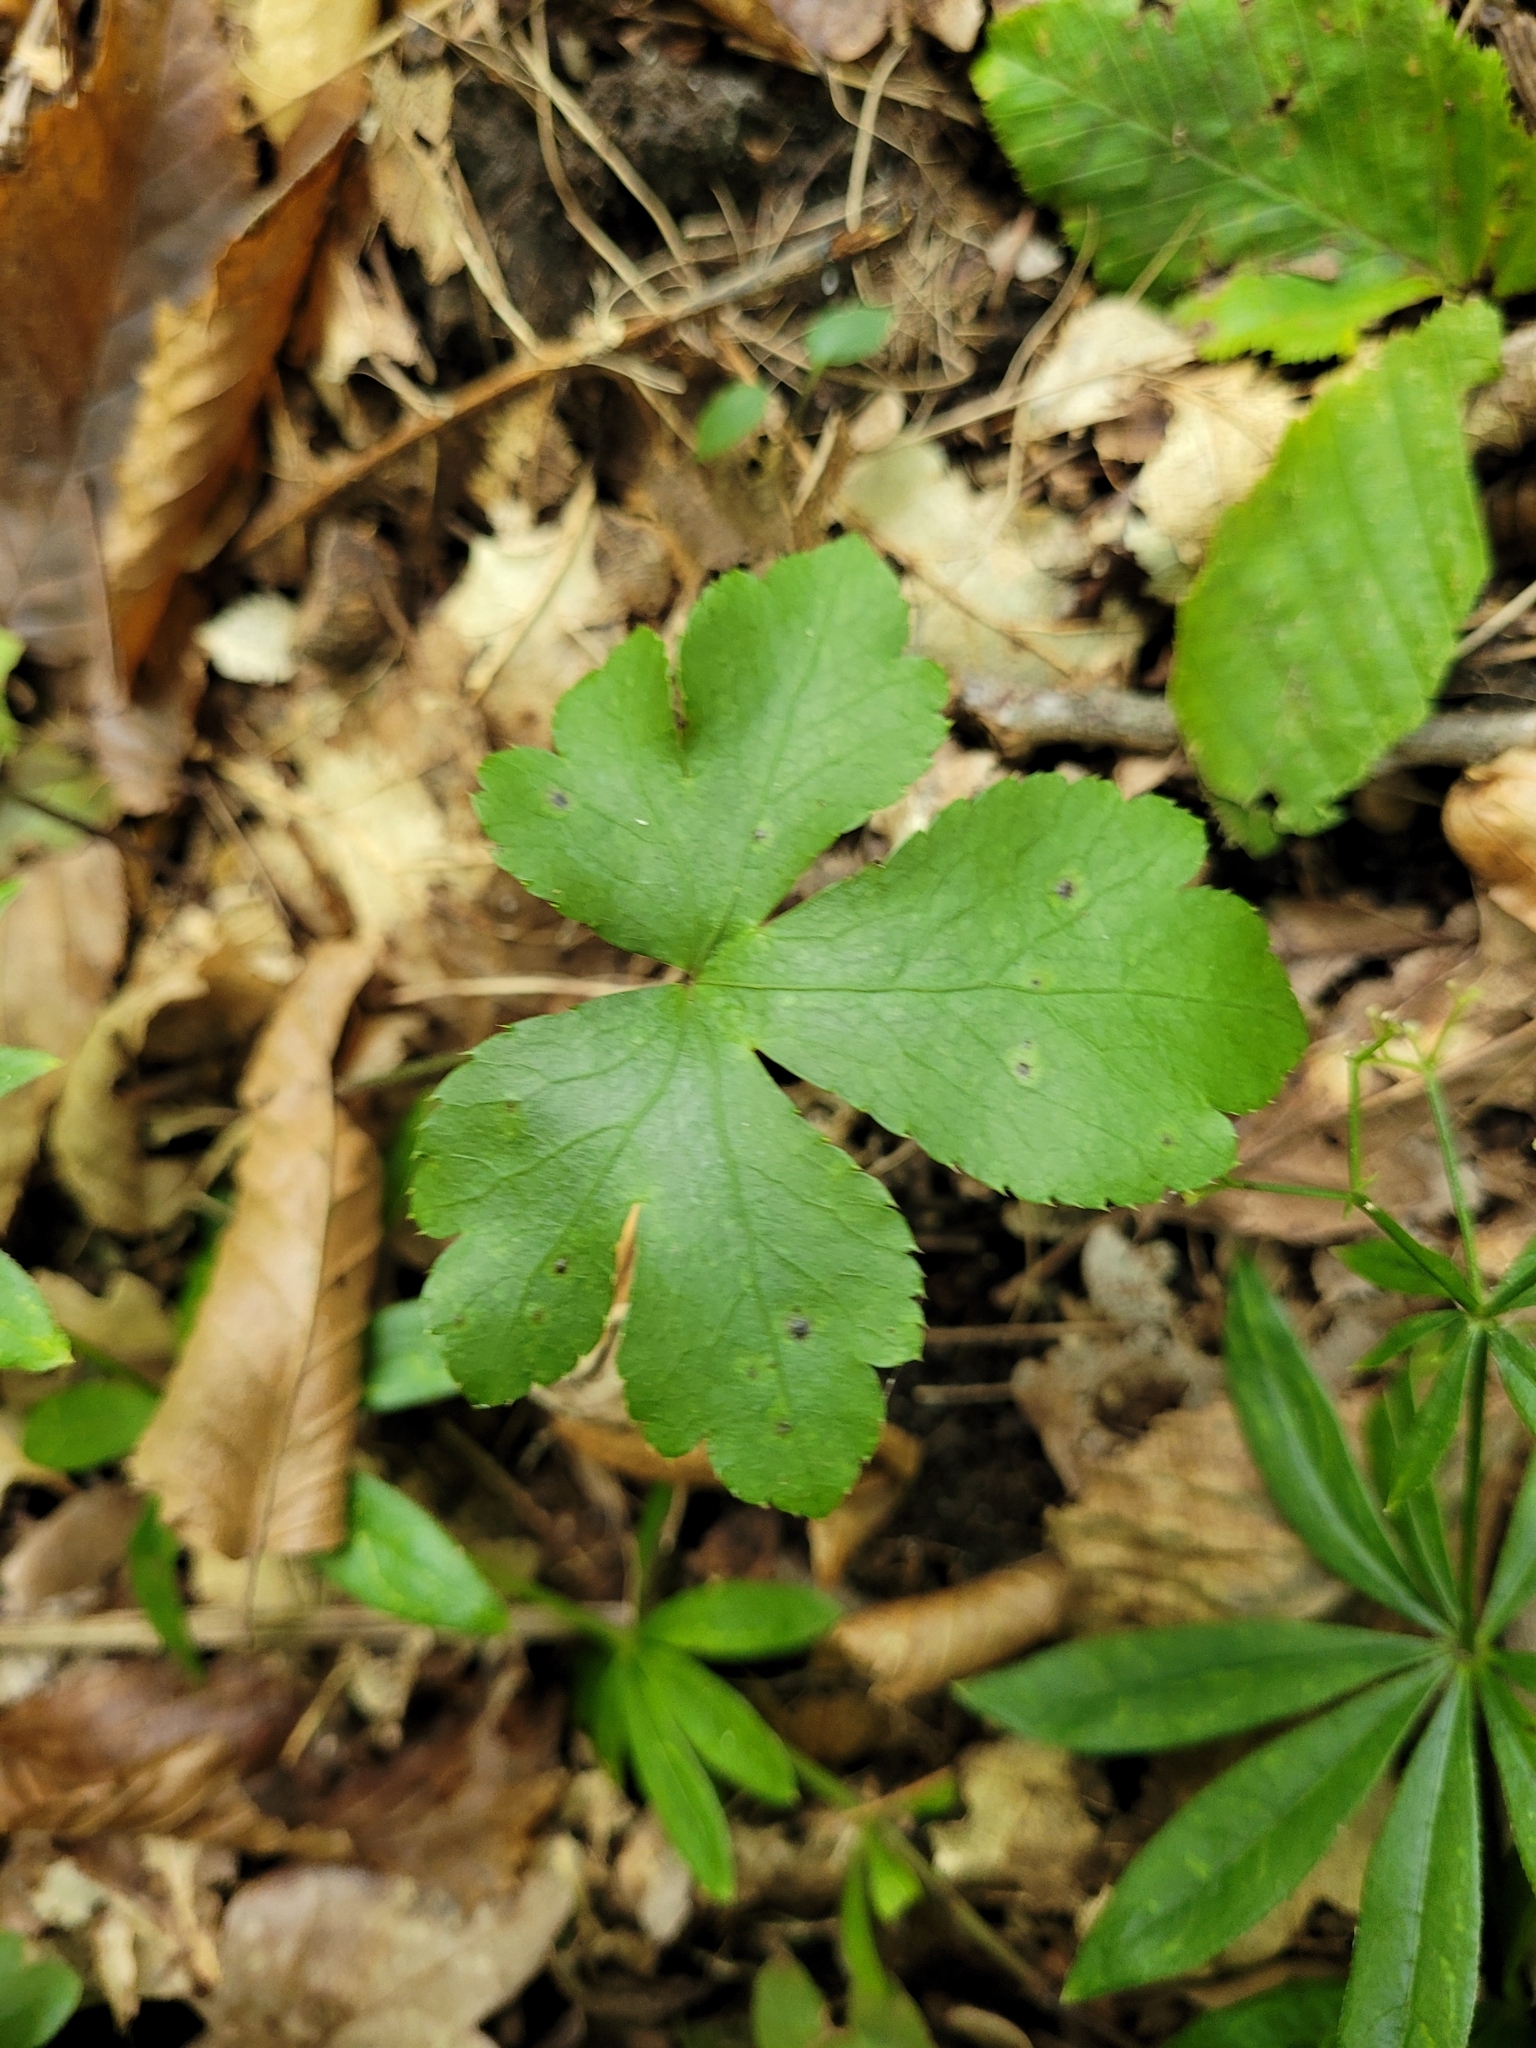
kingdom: Plantae
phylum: Tracheophyta
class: Magnoliopsida
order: Apiales
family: Apiaceae
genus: Sanicula
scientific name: Sanicula europaea
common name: Sanicle
